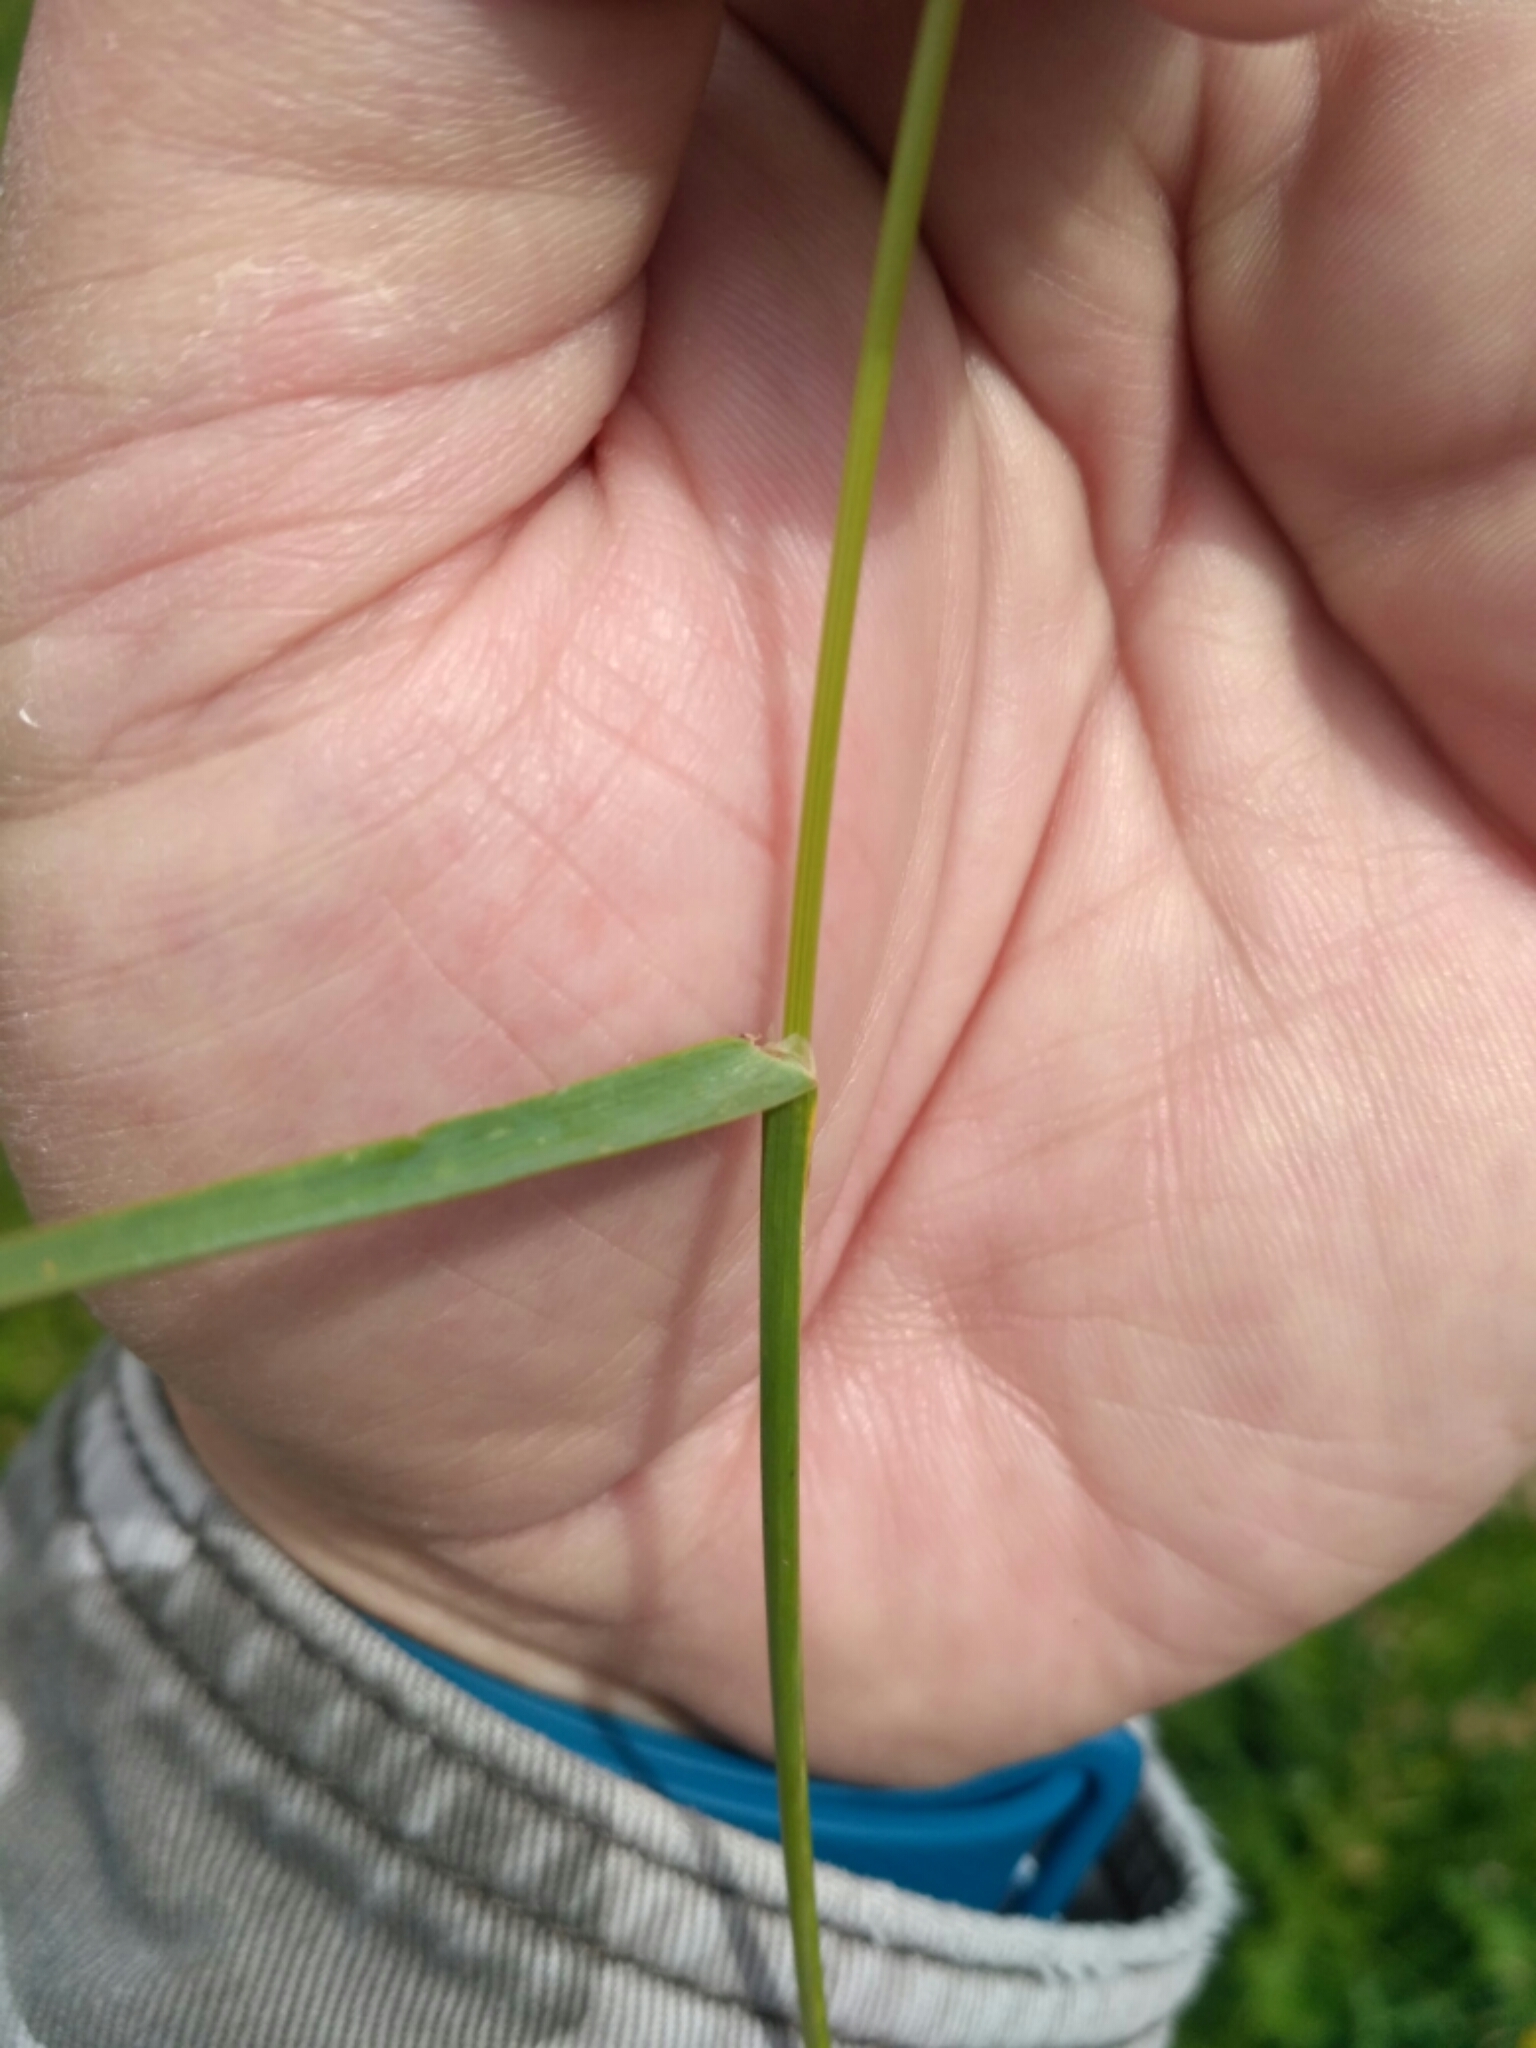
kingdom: Plantae
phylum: Tracheophyta
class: Liliopsida
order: Poales
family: Poaceae
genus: Poa
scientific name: Poa pratensis
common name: Kentucky bluegrass
